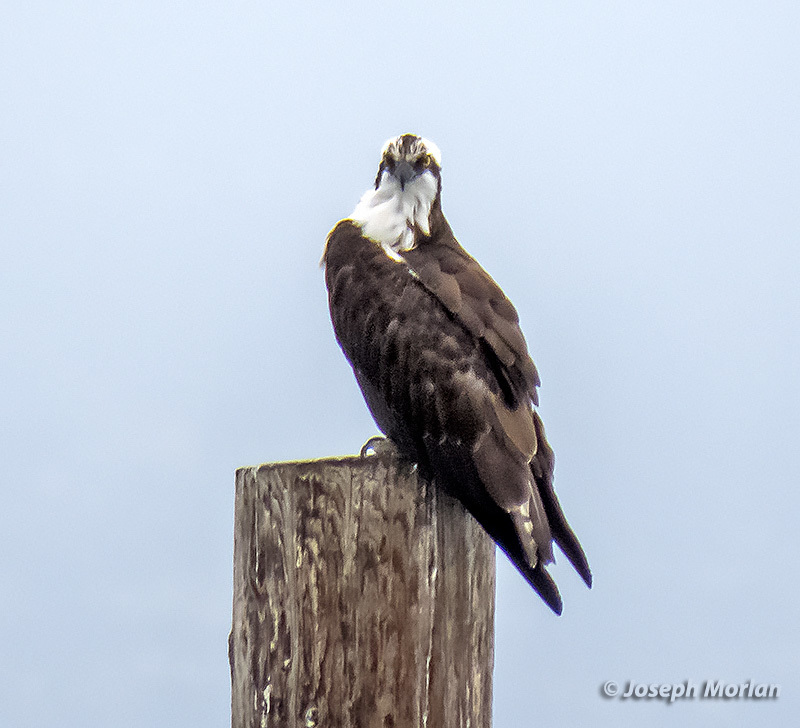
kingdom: Animalia
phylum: Chordata
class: Aves
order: Accipitriformes
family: Pandionidae
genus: Pandion
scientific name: Pandion haliaetus
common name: Osprey
